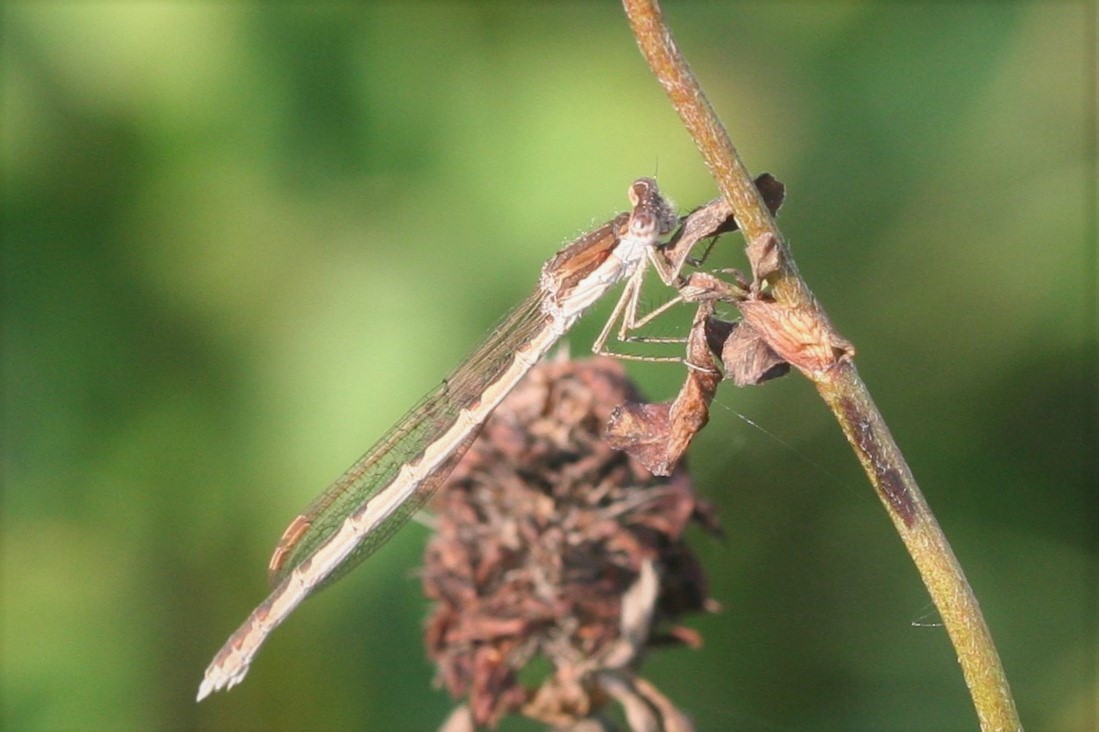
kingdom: Animalia
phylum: Arthropoda
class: Insecta
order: Odonata
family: Lestidae
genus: Sympecma
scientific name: Sympecma fusca
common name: Common winter damsel
